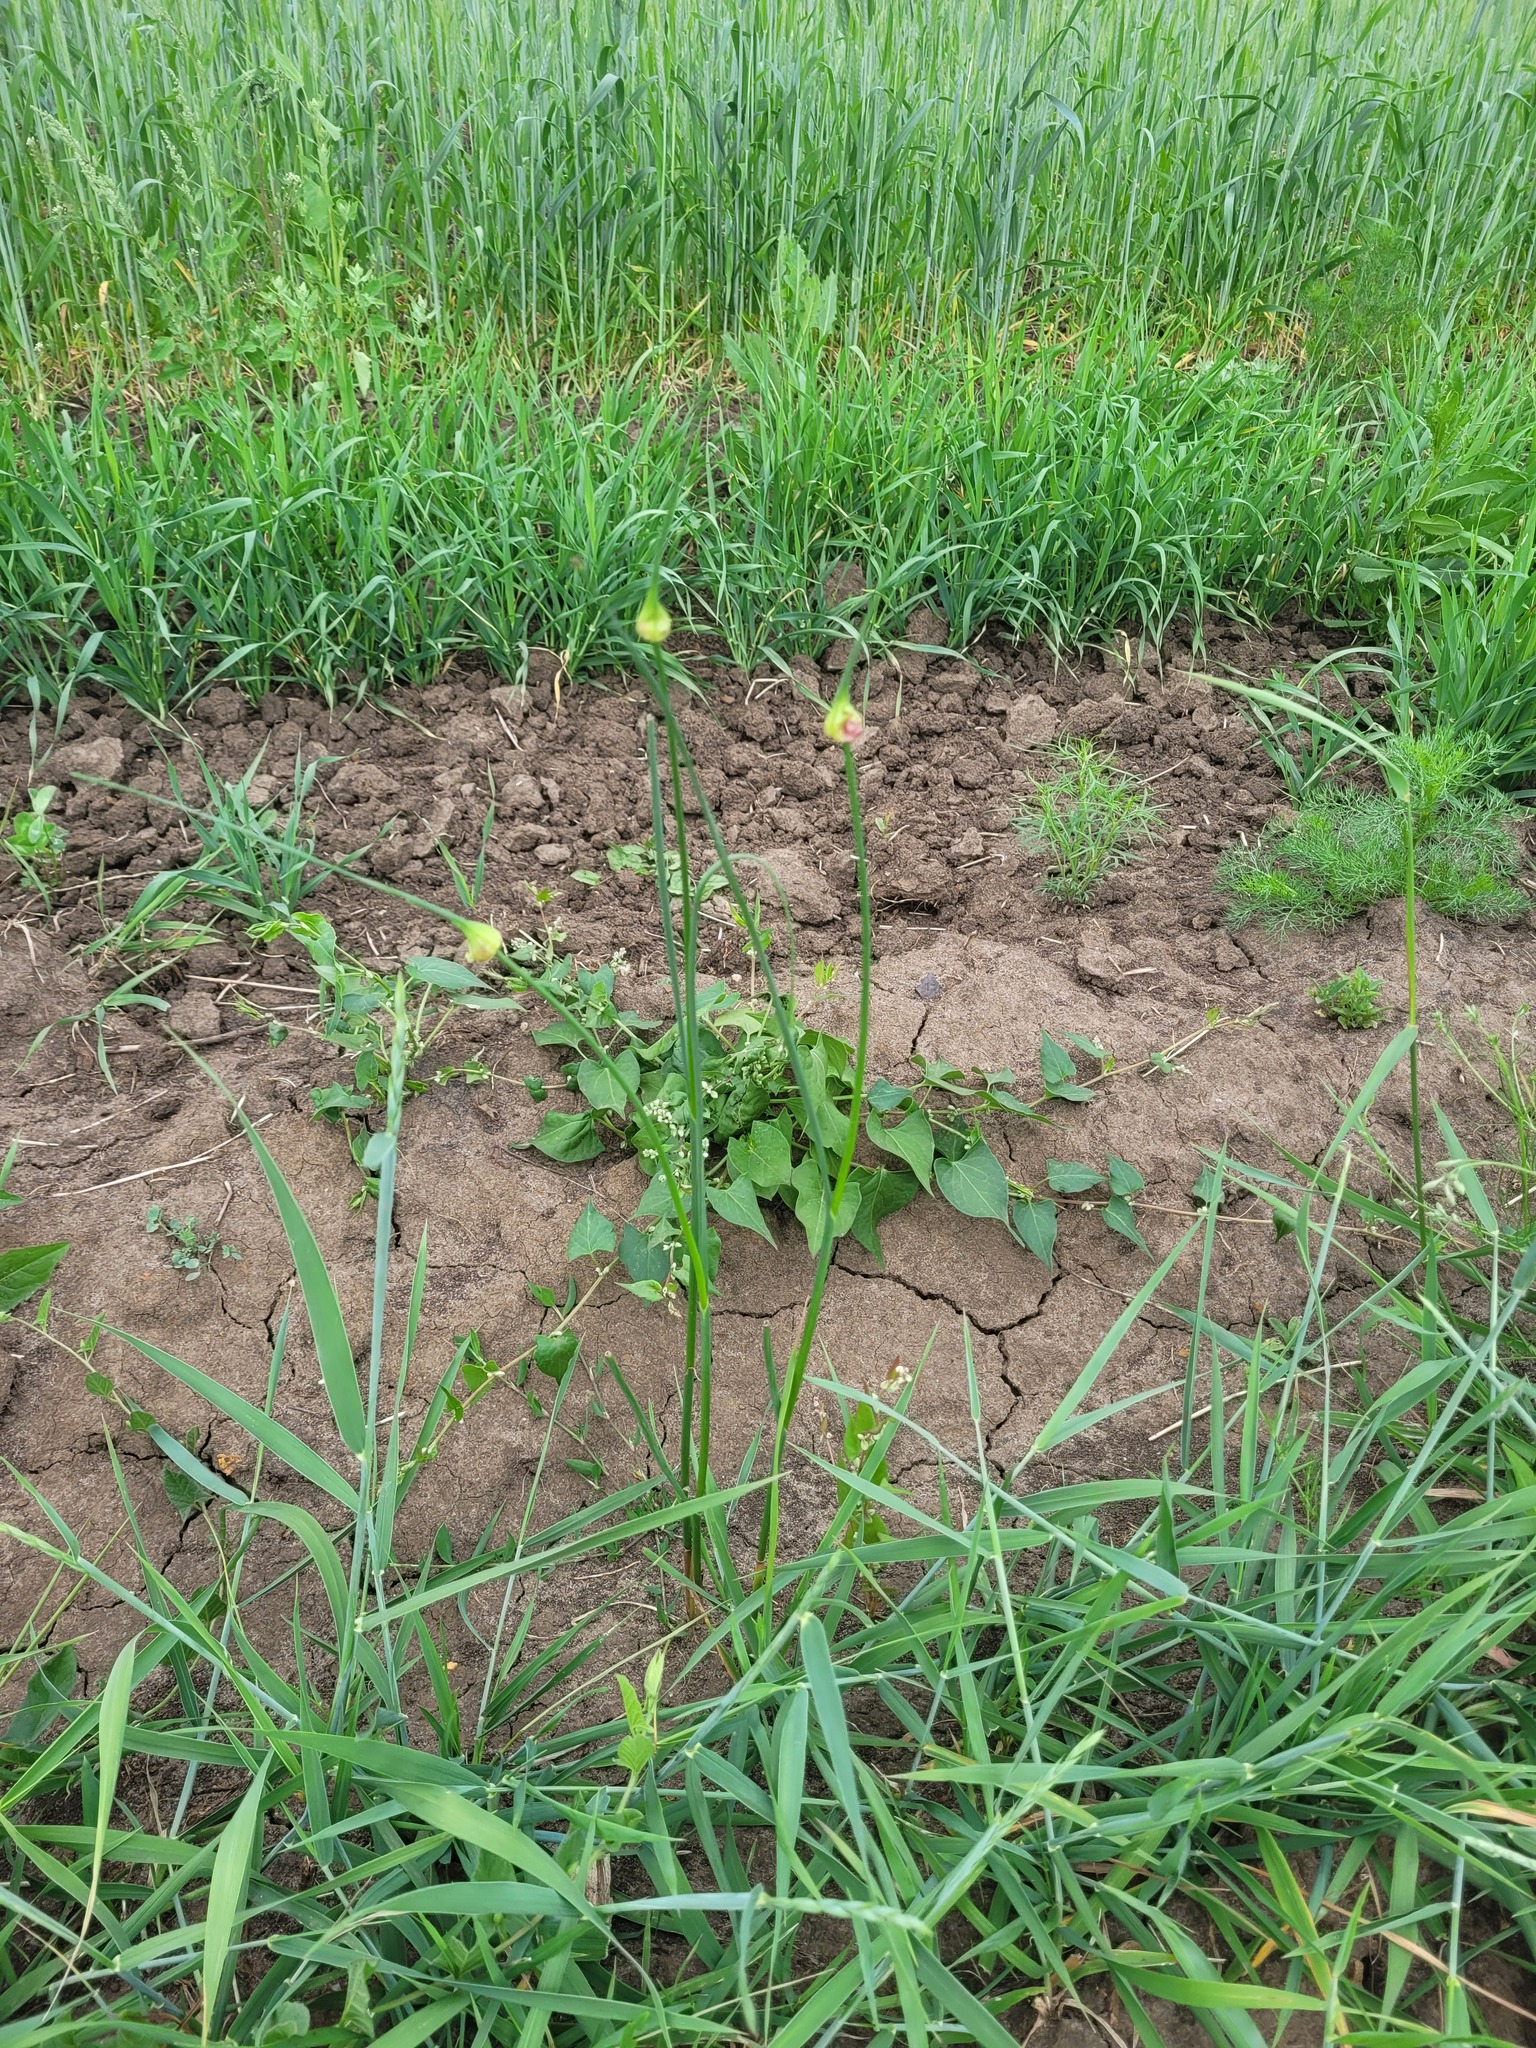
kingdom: Plantae
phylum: Tracheophyta
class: Liliopsida
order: Asparagales
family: Amaryllidaceae
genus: Allium
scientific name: Allium oleraceum
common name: Field garlic
